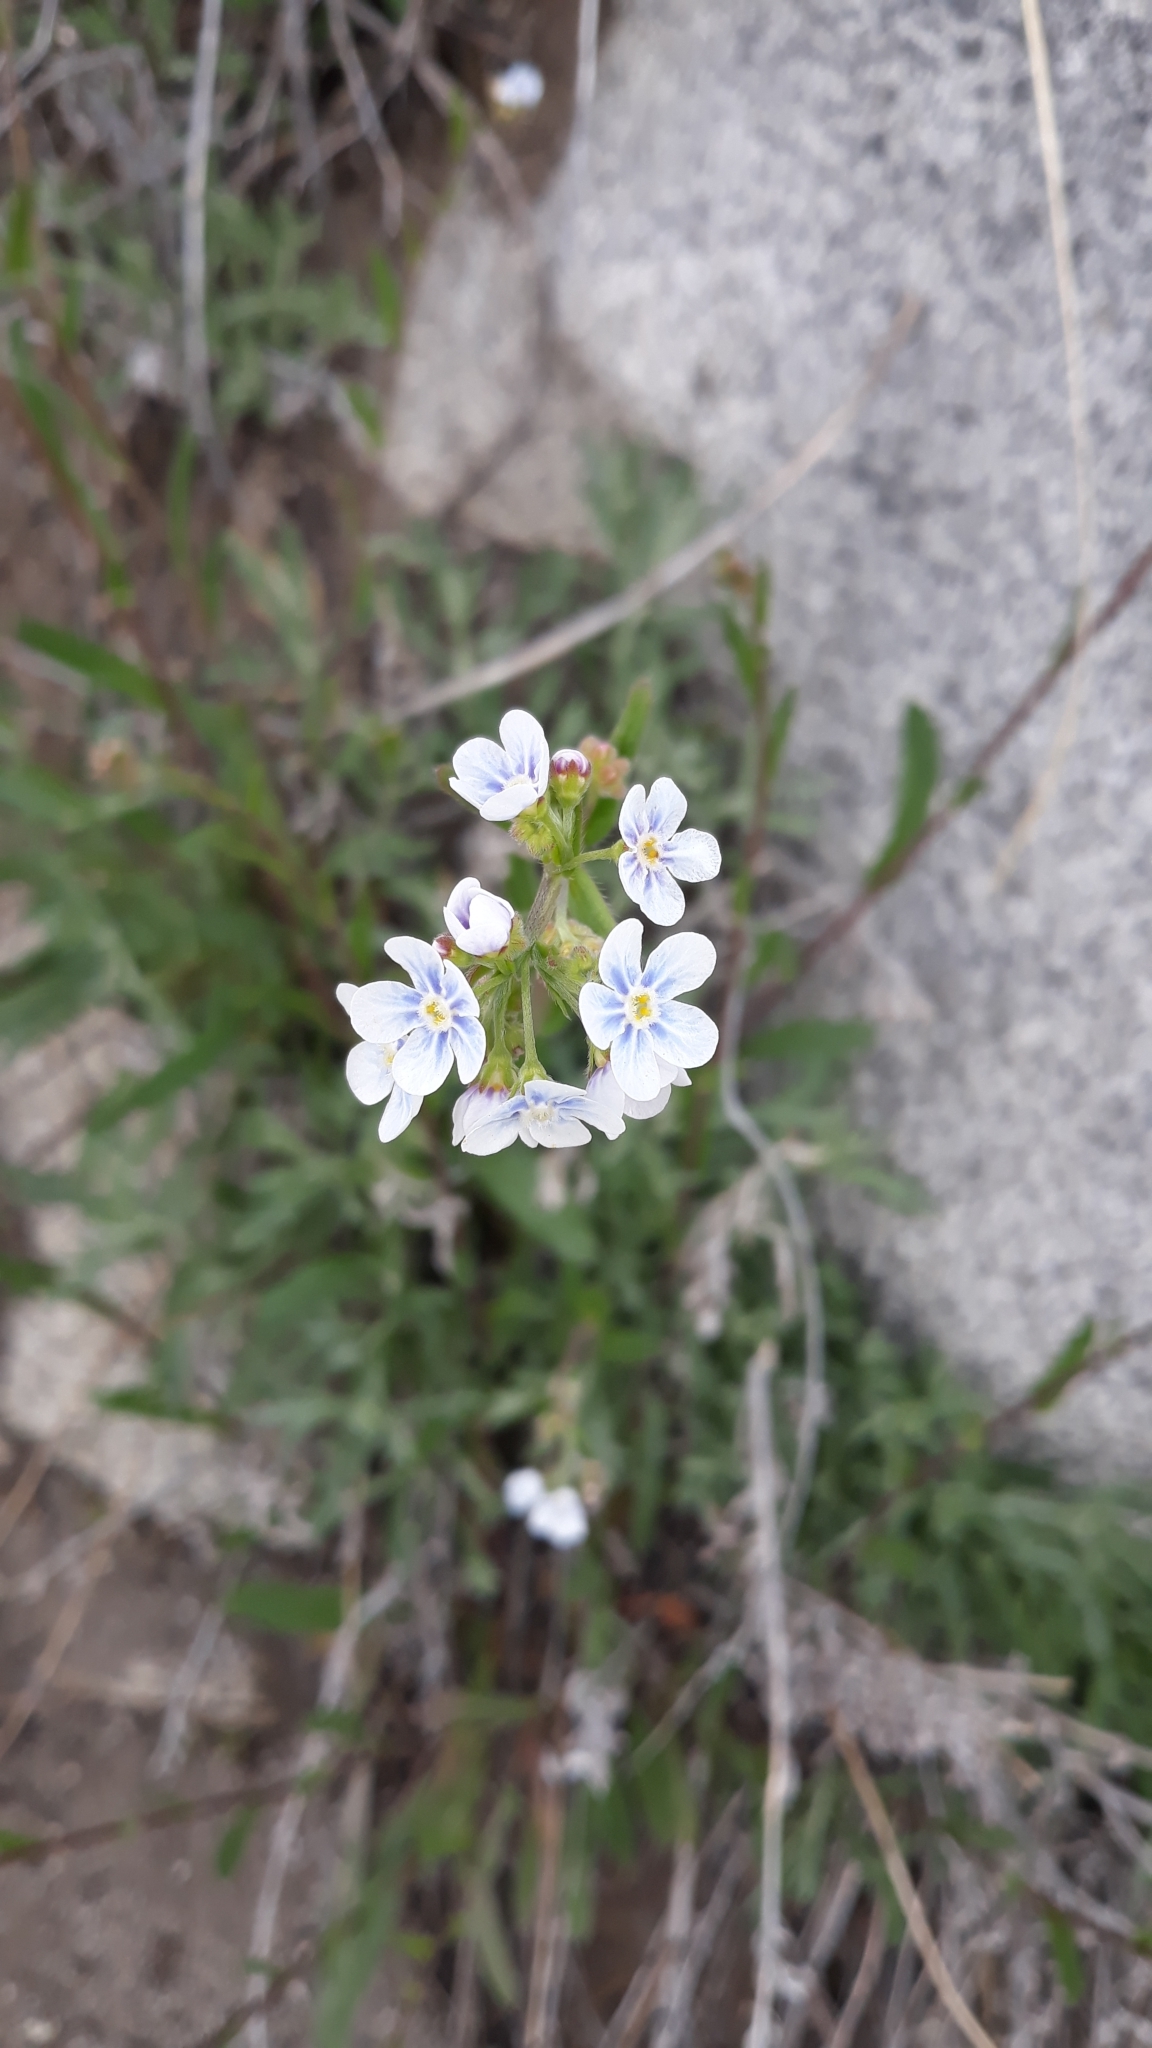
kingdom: Plantae
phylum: Tracheophyta
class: Magnoliopsida
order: Boraginales
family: Boraginaceae
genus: Hackelia
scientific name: Hackelia patens
